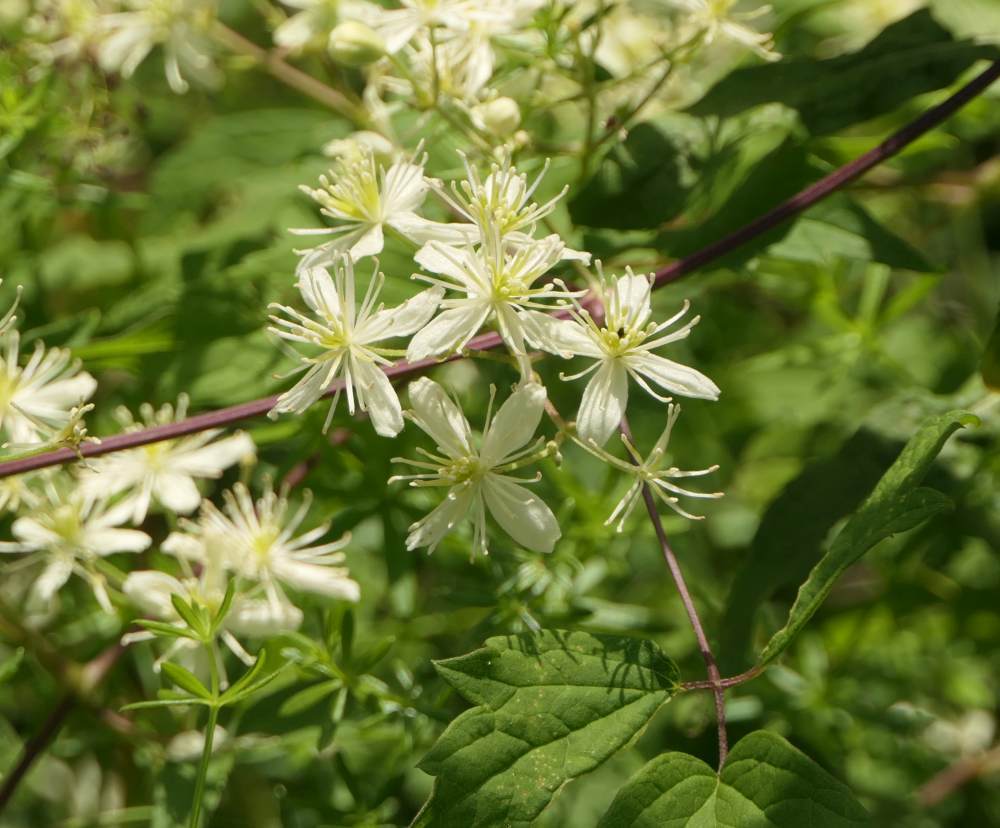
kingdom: Plantae
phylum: Tracheophyta
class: Magnoliopsida
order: Ranunculales
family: Ranunculaceae
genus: Clematis
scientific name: Clematis virginiana
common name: Virgin's-bower
